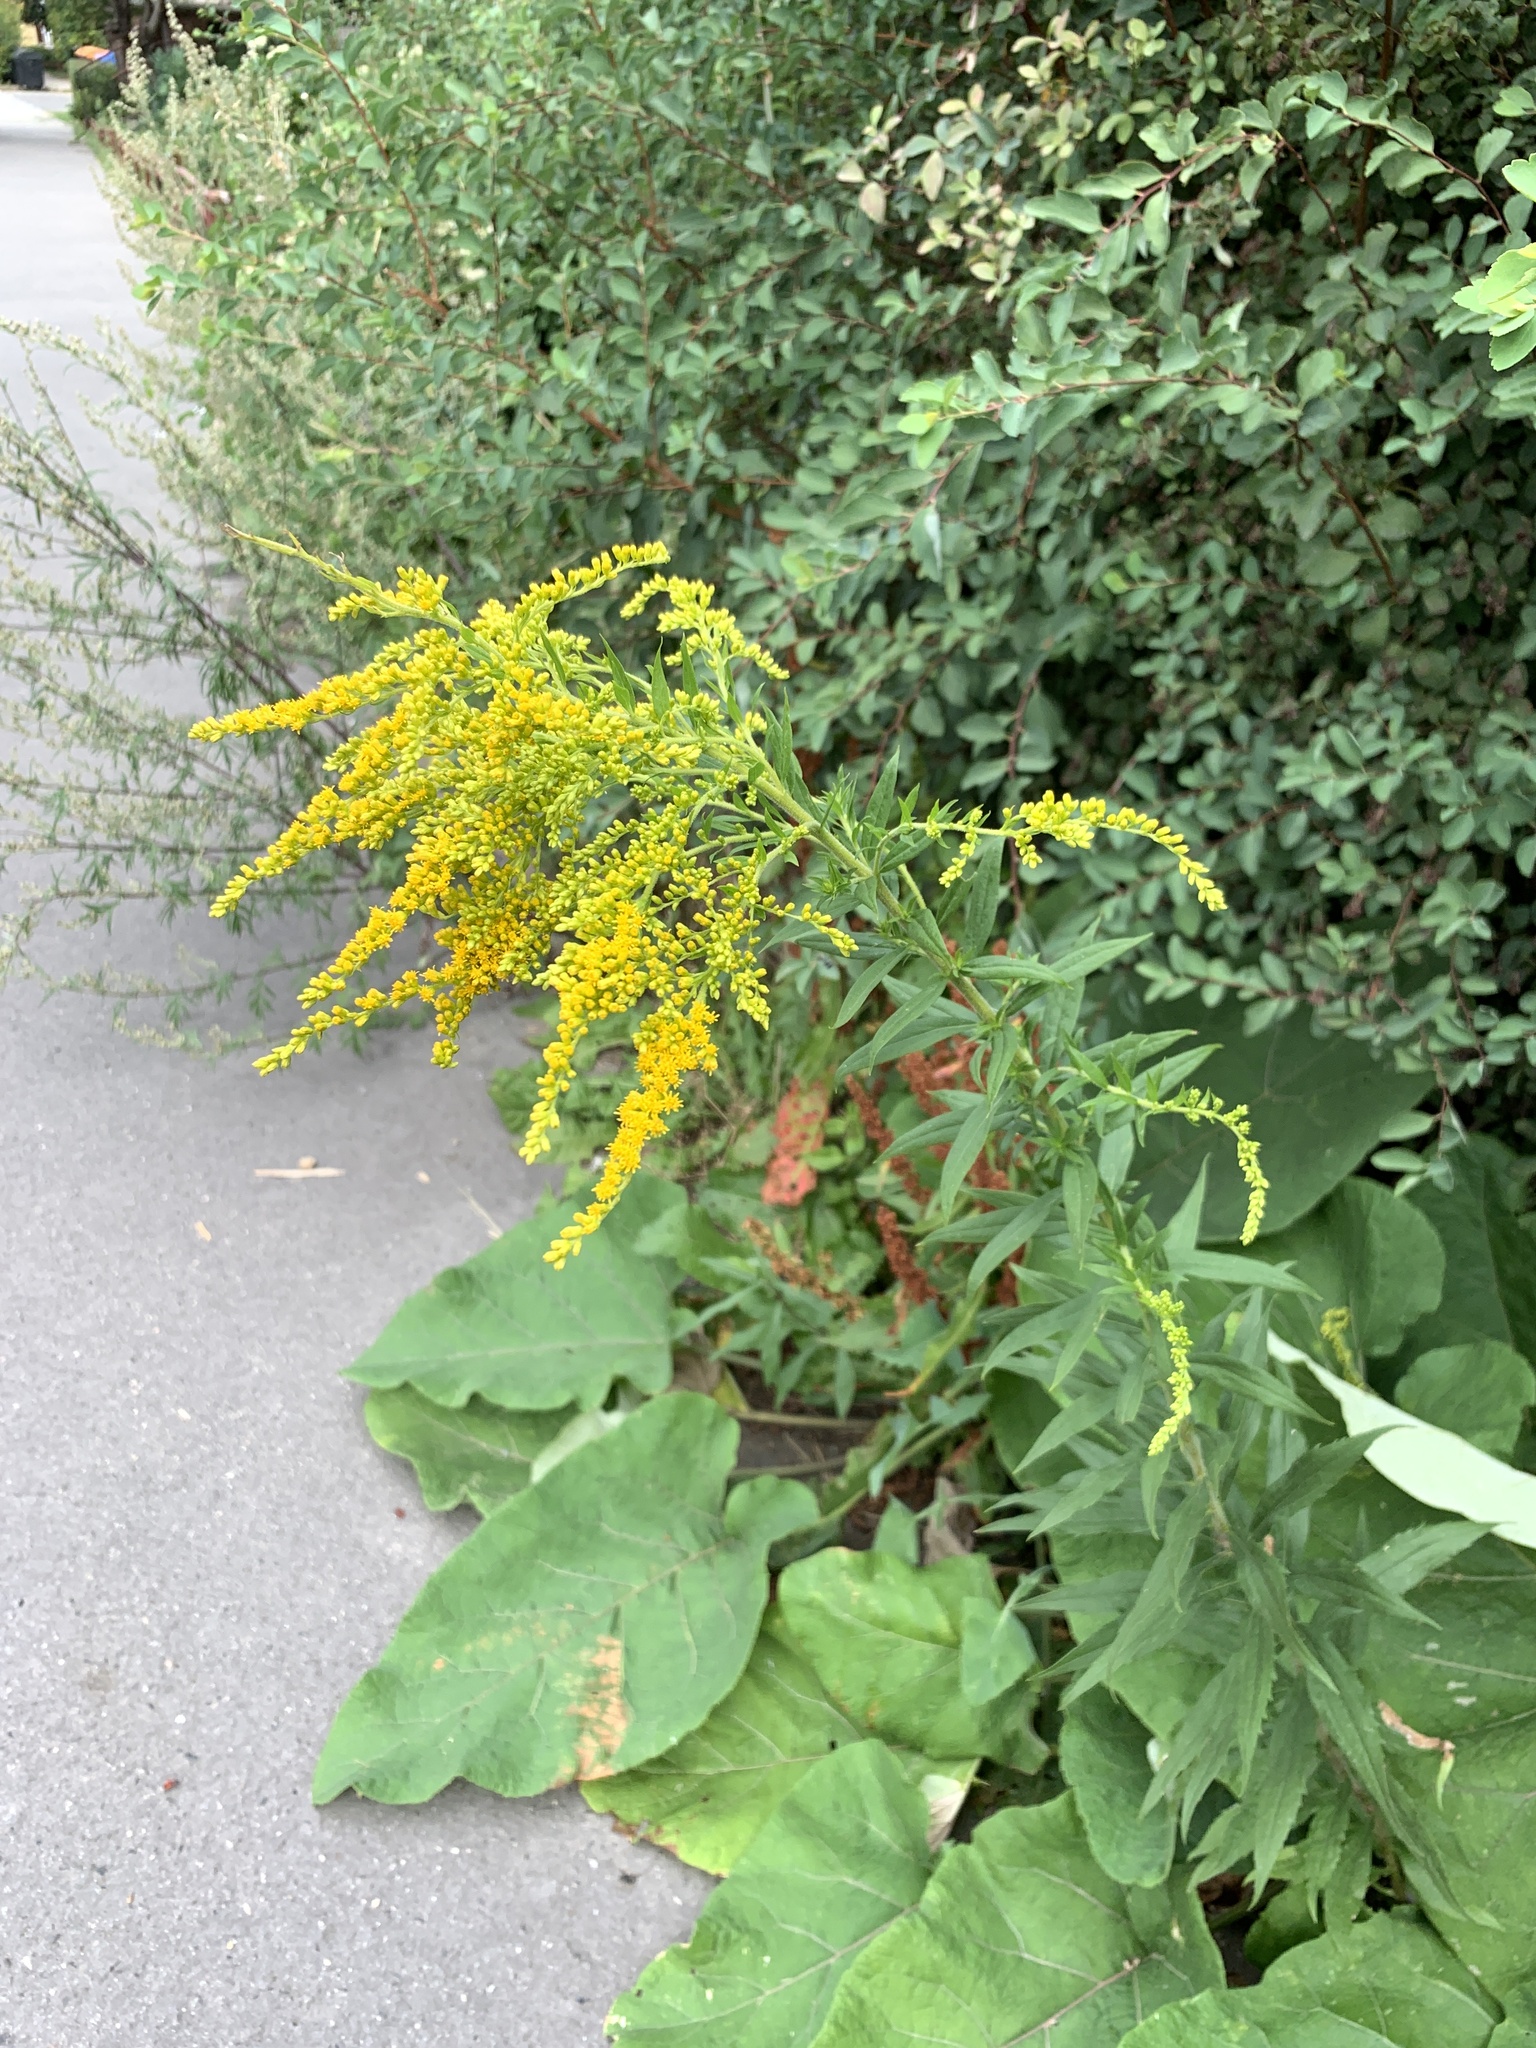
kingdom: Plantae
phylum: Tracheophyta
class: Magnoliopsida
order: Asterales
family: Asteraceae
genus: Solidago
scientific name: Solidago canadensis
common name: Canada goldenrod
